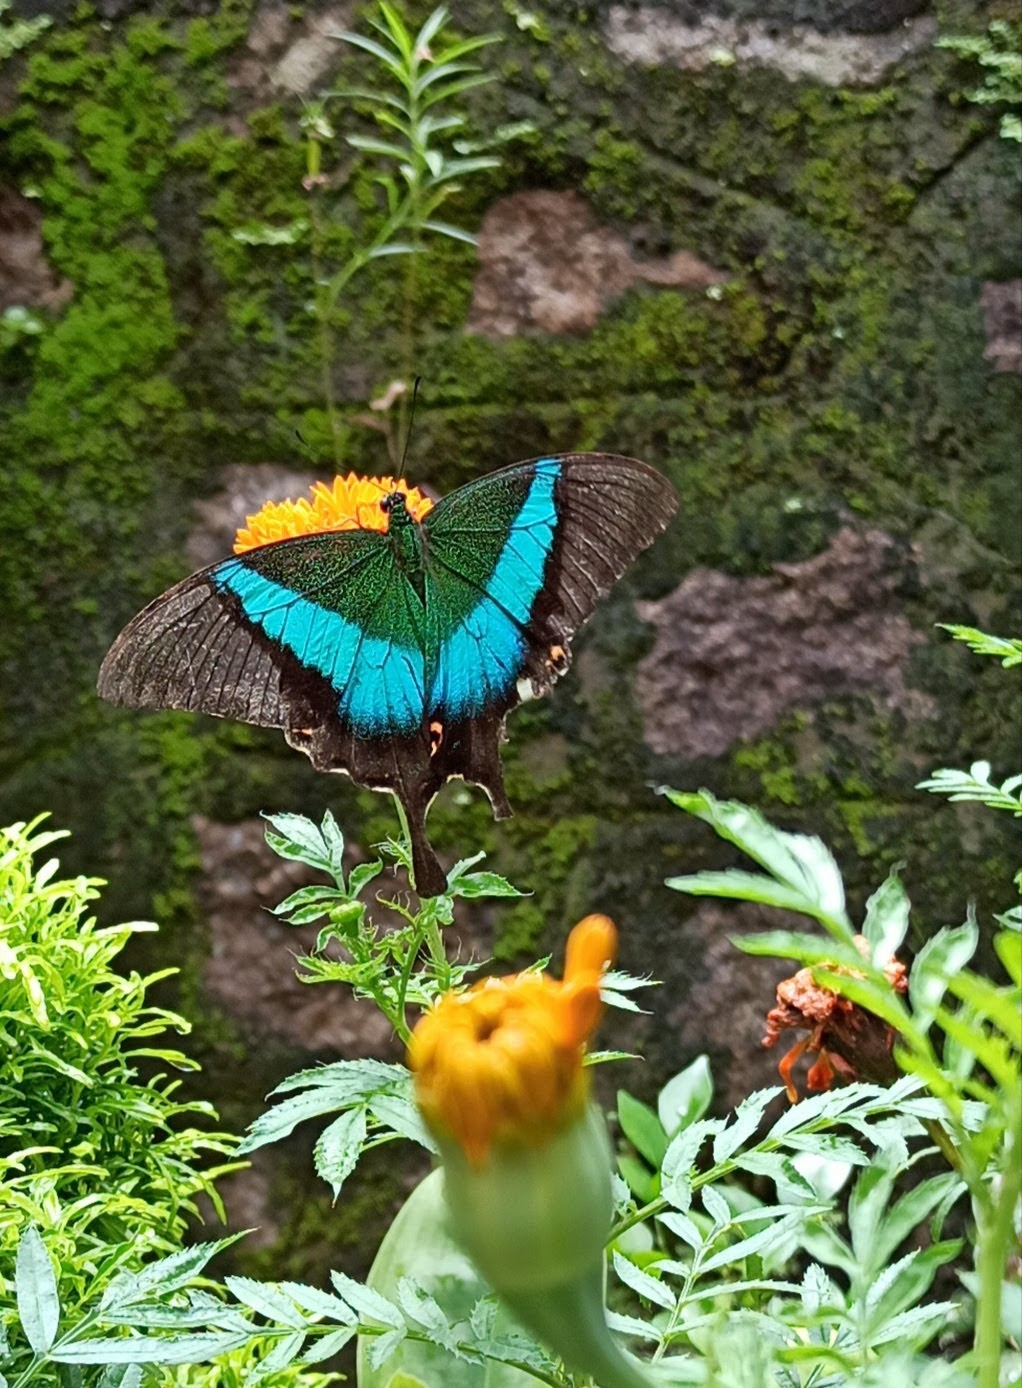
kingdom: Animalia
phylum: Arthropoda
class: Insecta
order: Lepidoptera
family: Papilionidae
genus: Papilio
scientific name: Papilio buddha
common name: Malabar banded peacock
